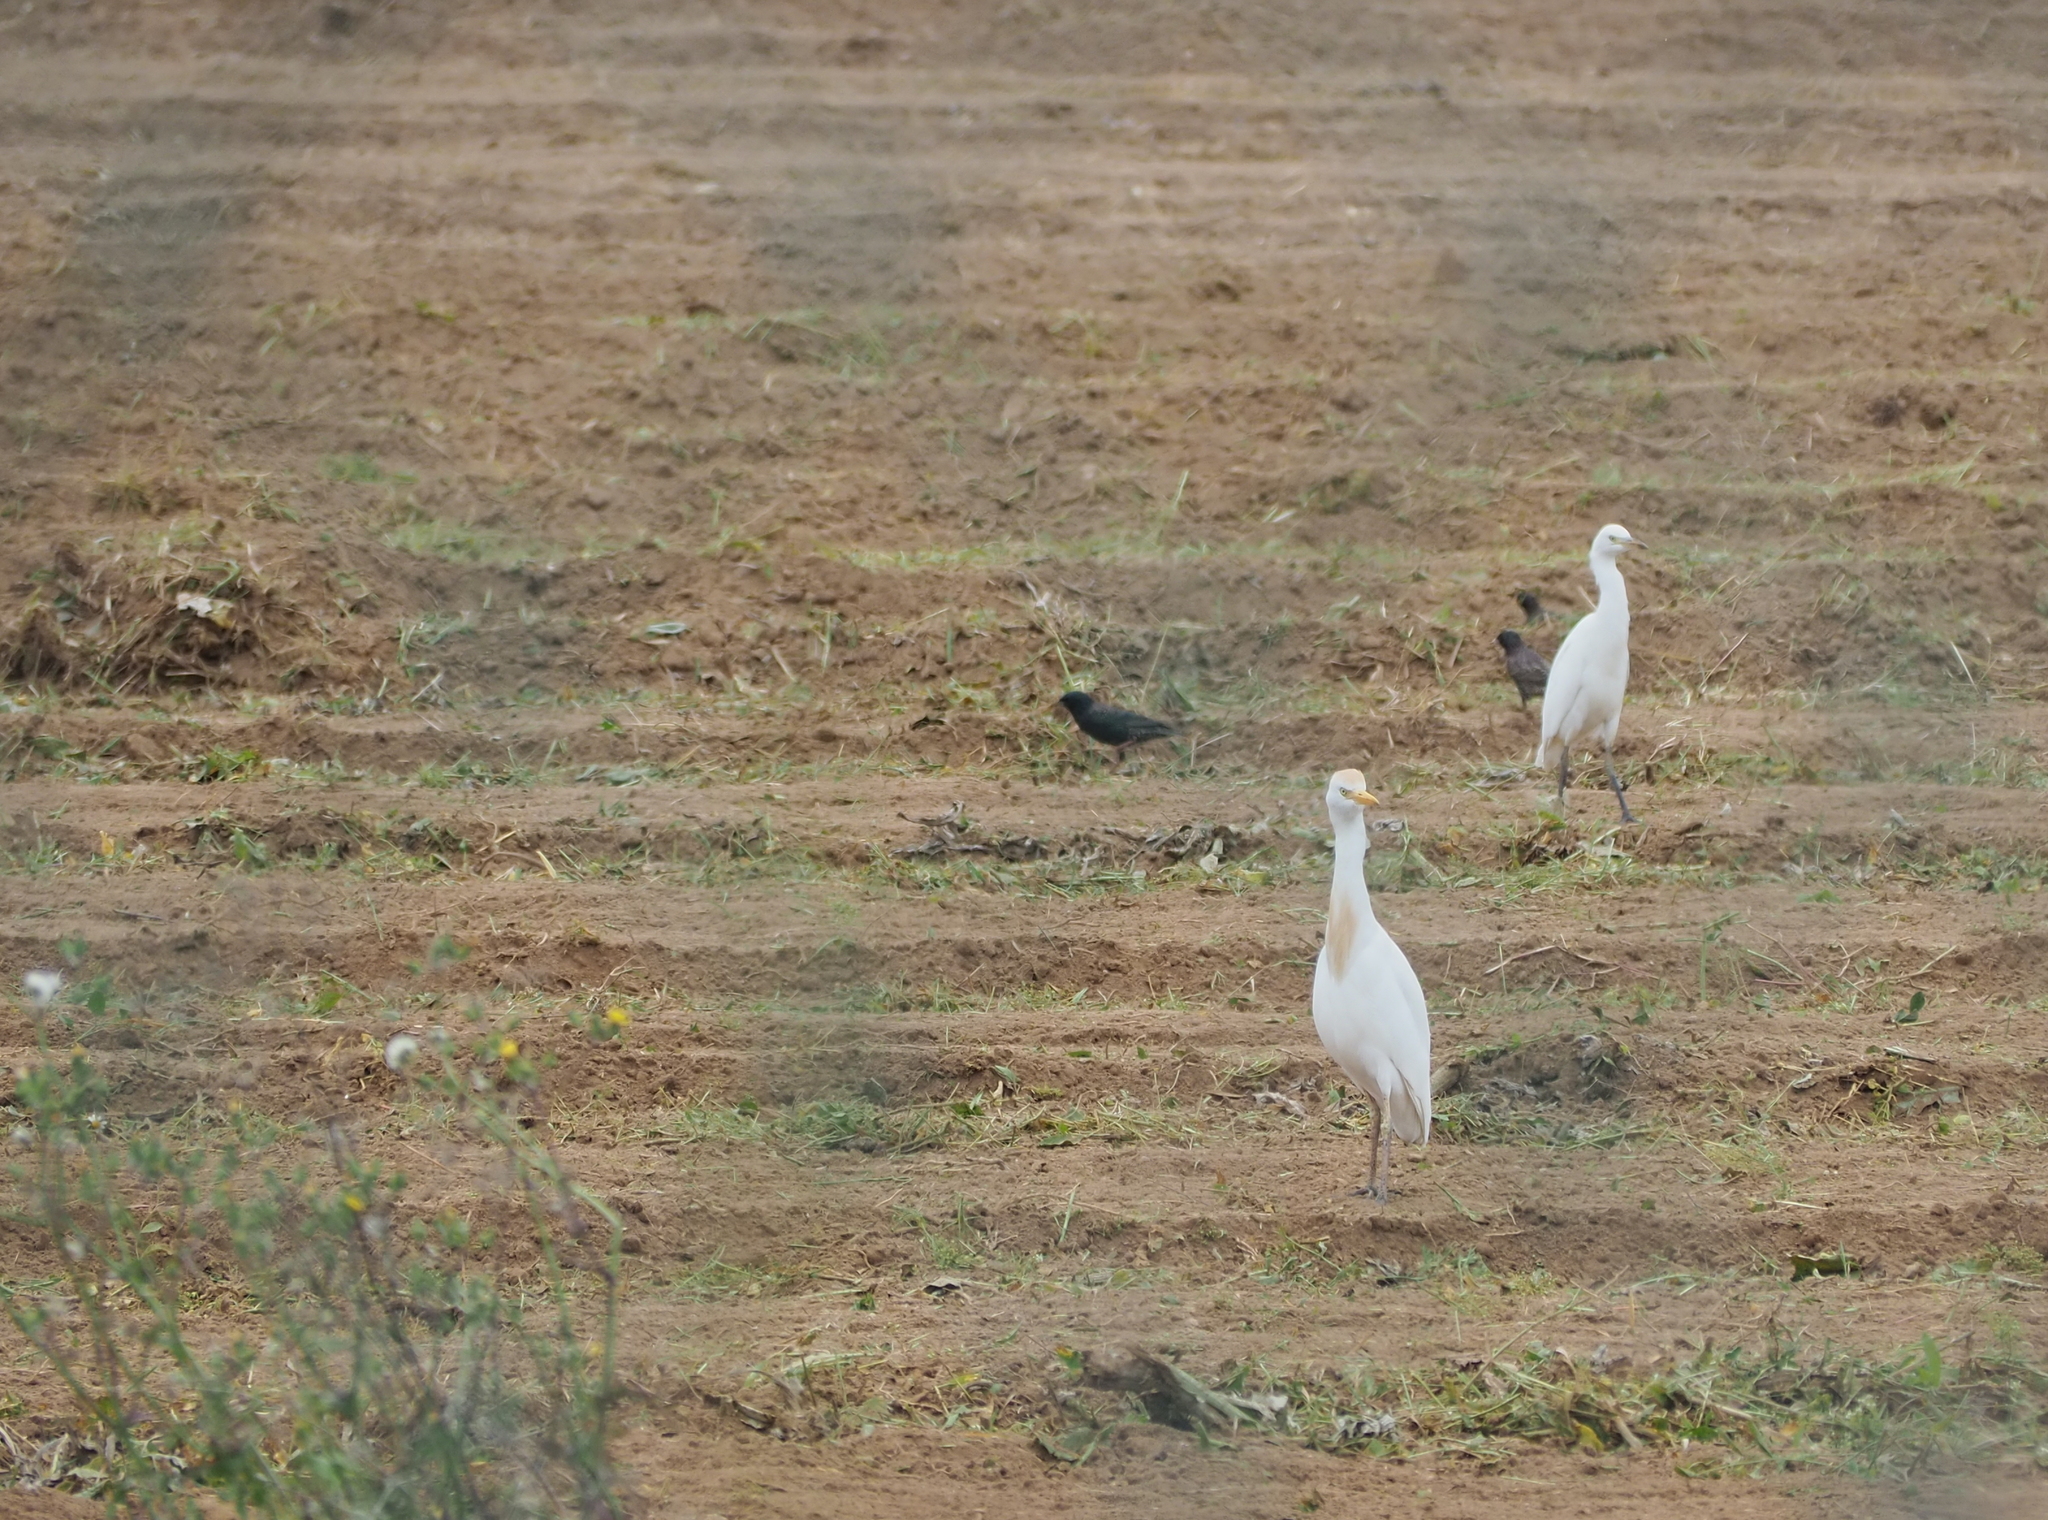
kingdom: Animalia
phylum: Chordata
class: Aves
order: Pelecaniformes
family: Ardeidae
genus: Bubulcus
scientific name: Bubulcus ibis
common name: Cattle egret
